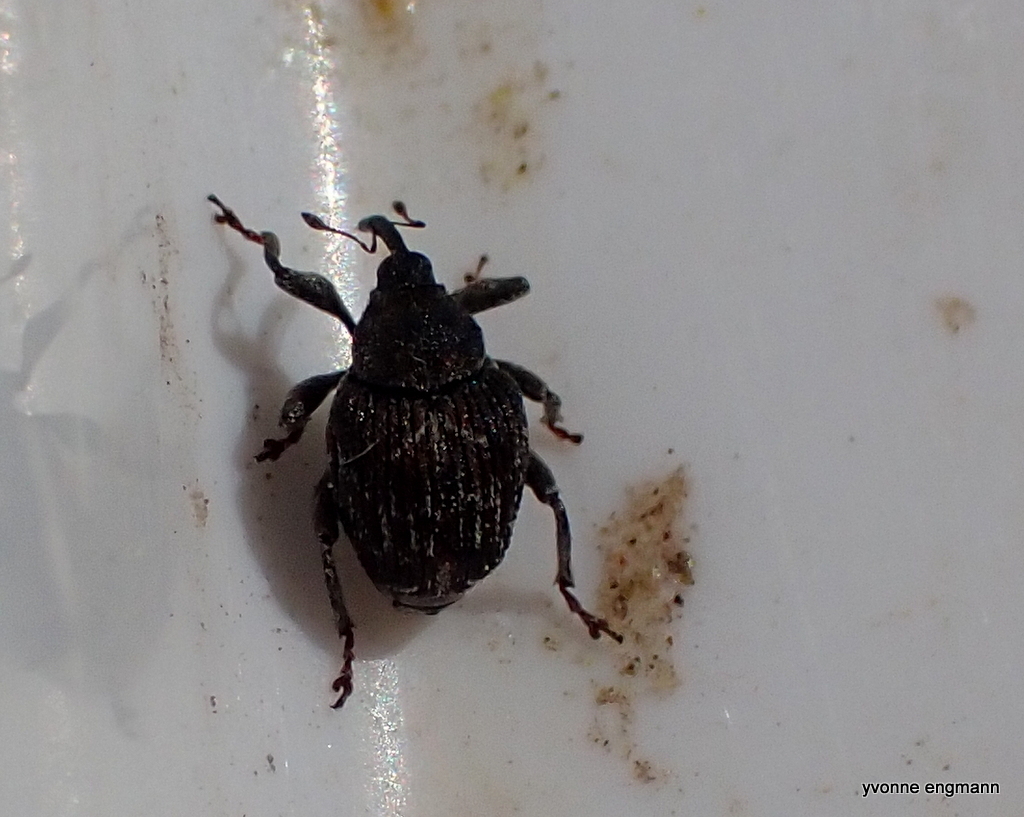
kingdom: Animalia
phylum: Arthropoda
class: Insecta
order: Coleoptera
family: Curculionidae
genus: Mogulones
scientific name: Mogulones geographicus
